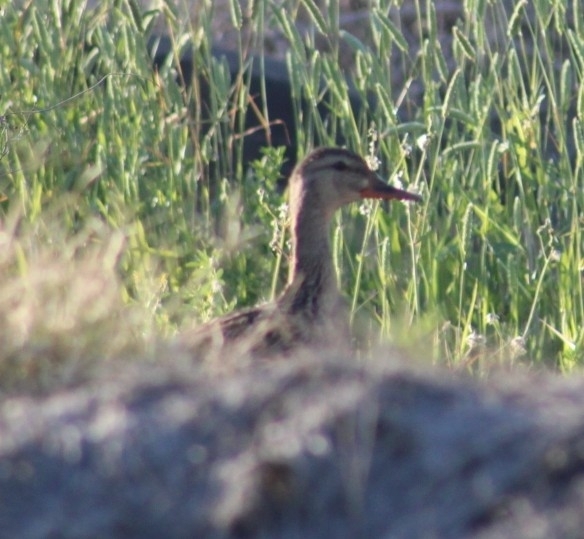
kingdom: Animalia
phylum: Chordata
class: Aves
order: Anseriformes
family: Anatidae
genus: Anas
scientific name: Anas platyrhynchos
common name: Mallard
